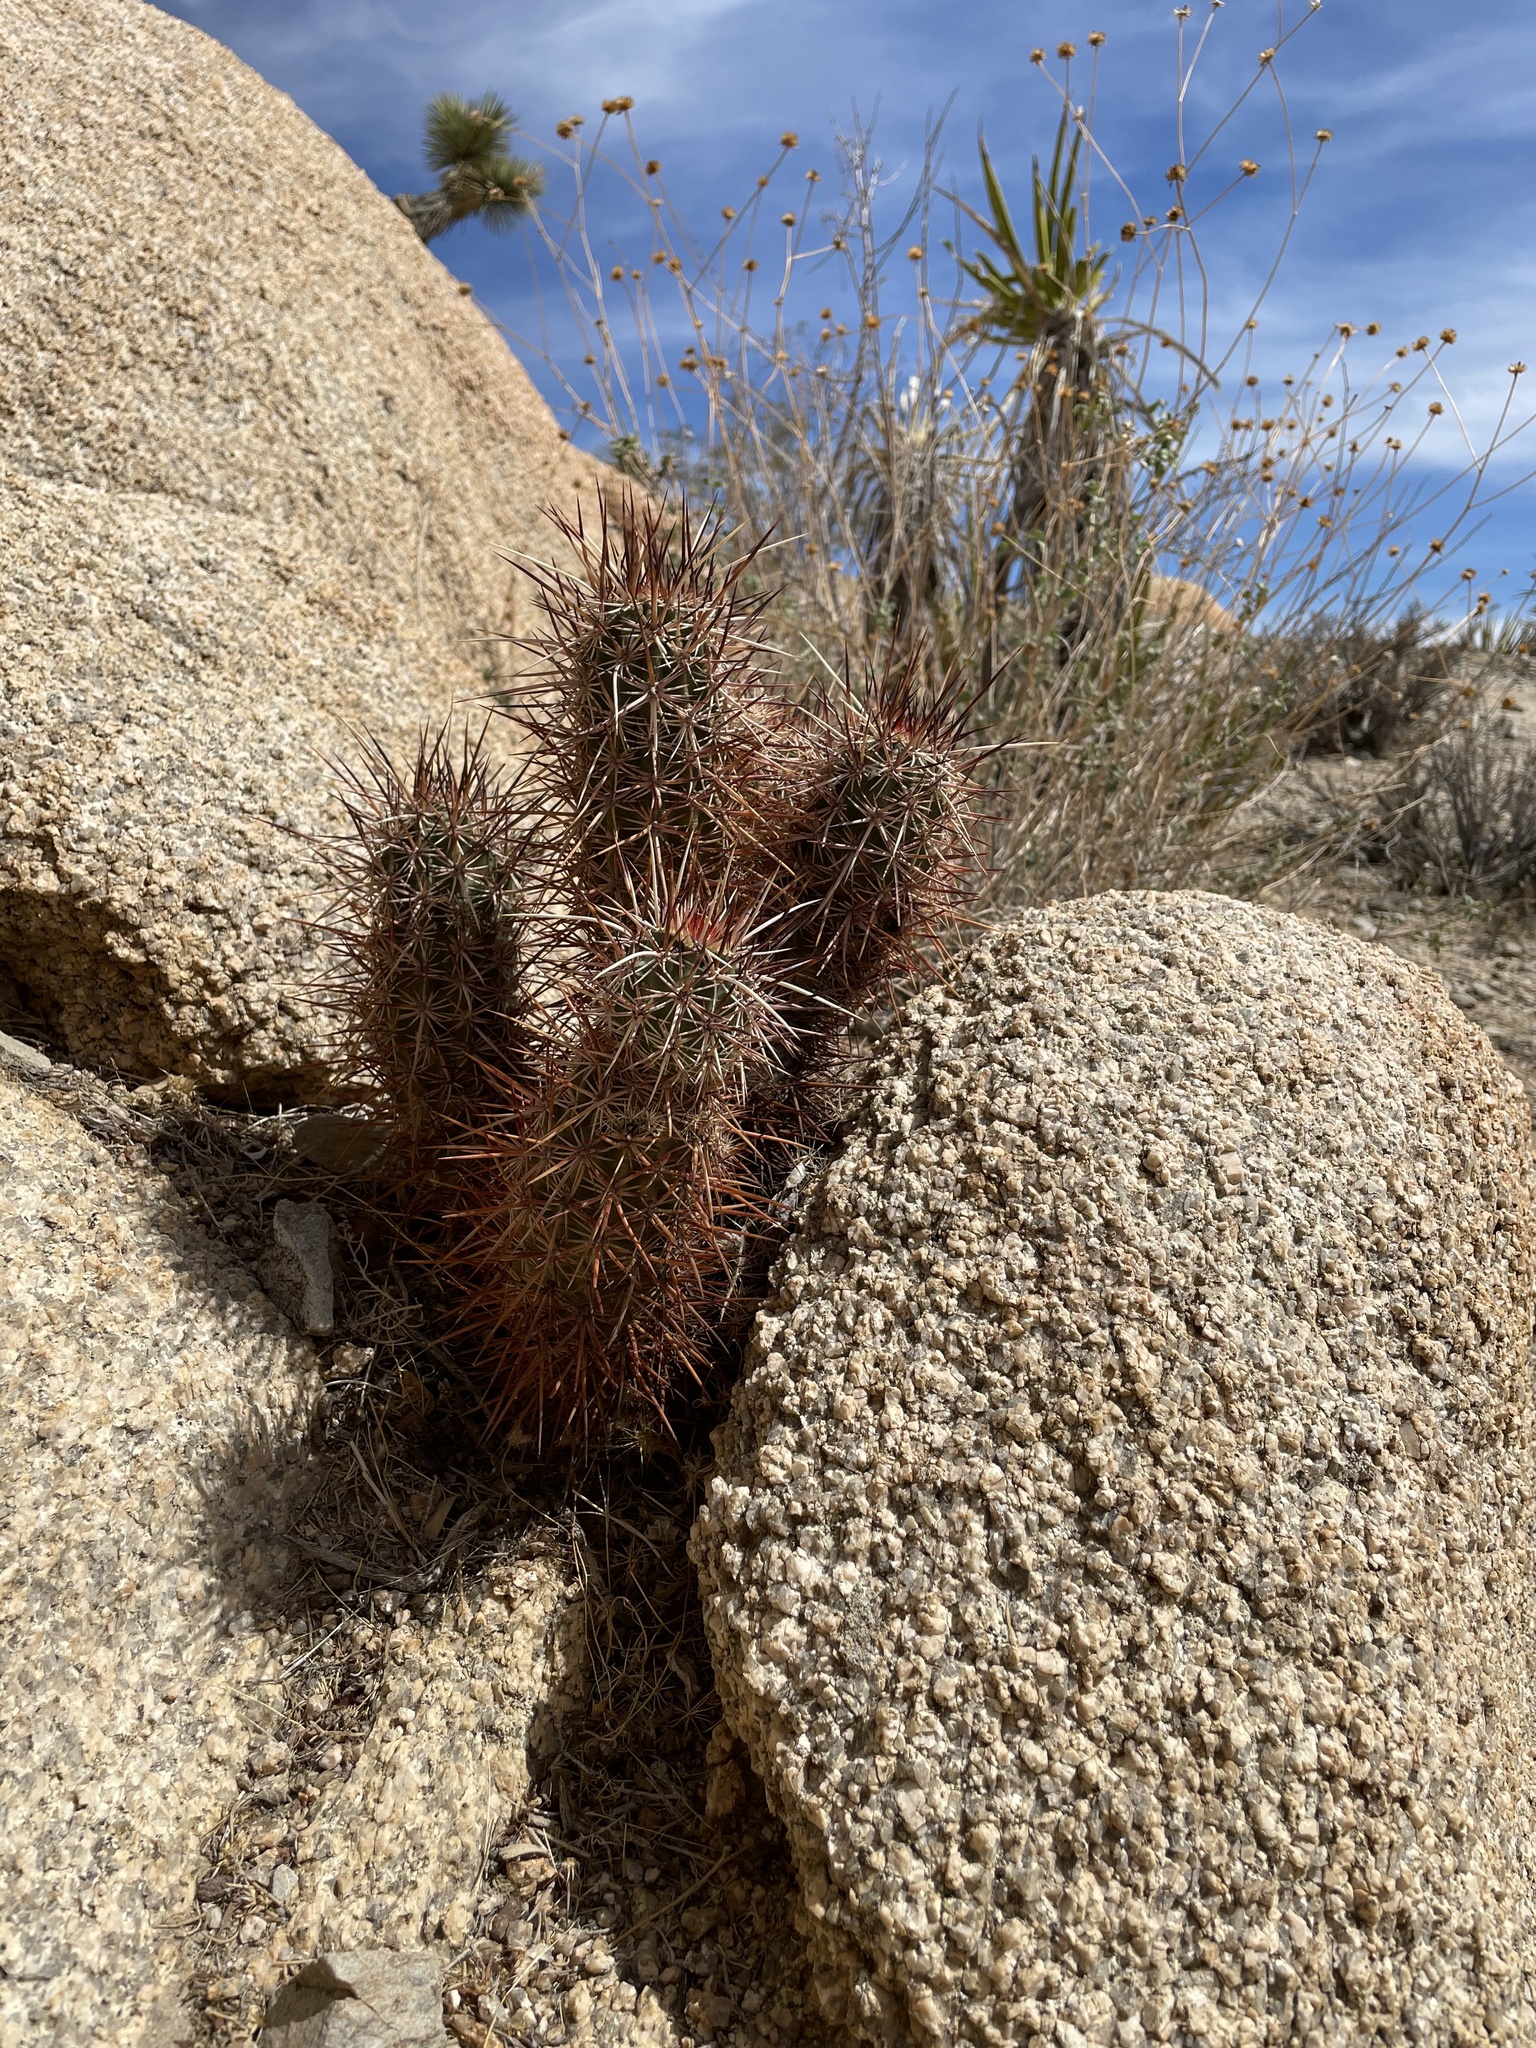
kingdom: Plantae
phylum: Tracheophyta
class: Magnoliopsida
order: Caryophyllales
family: Cactaceae
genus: Echinocereus
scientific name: Echinocereus engelmannii
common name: Engelmann's hedgehog cactus
